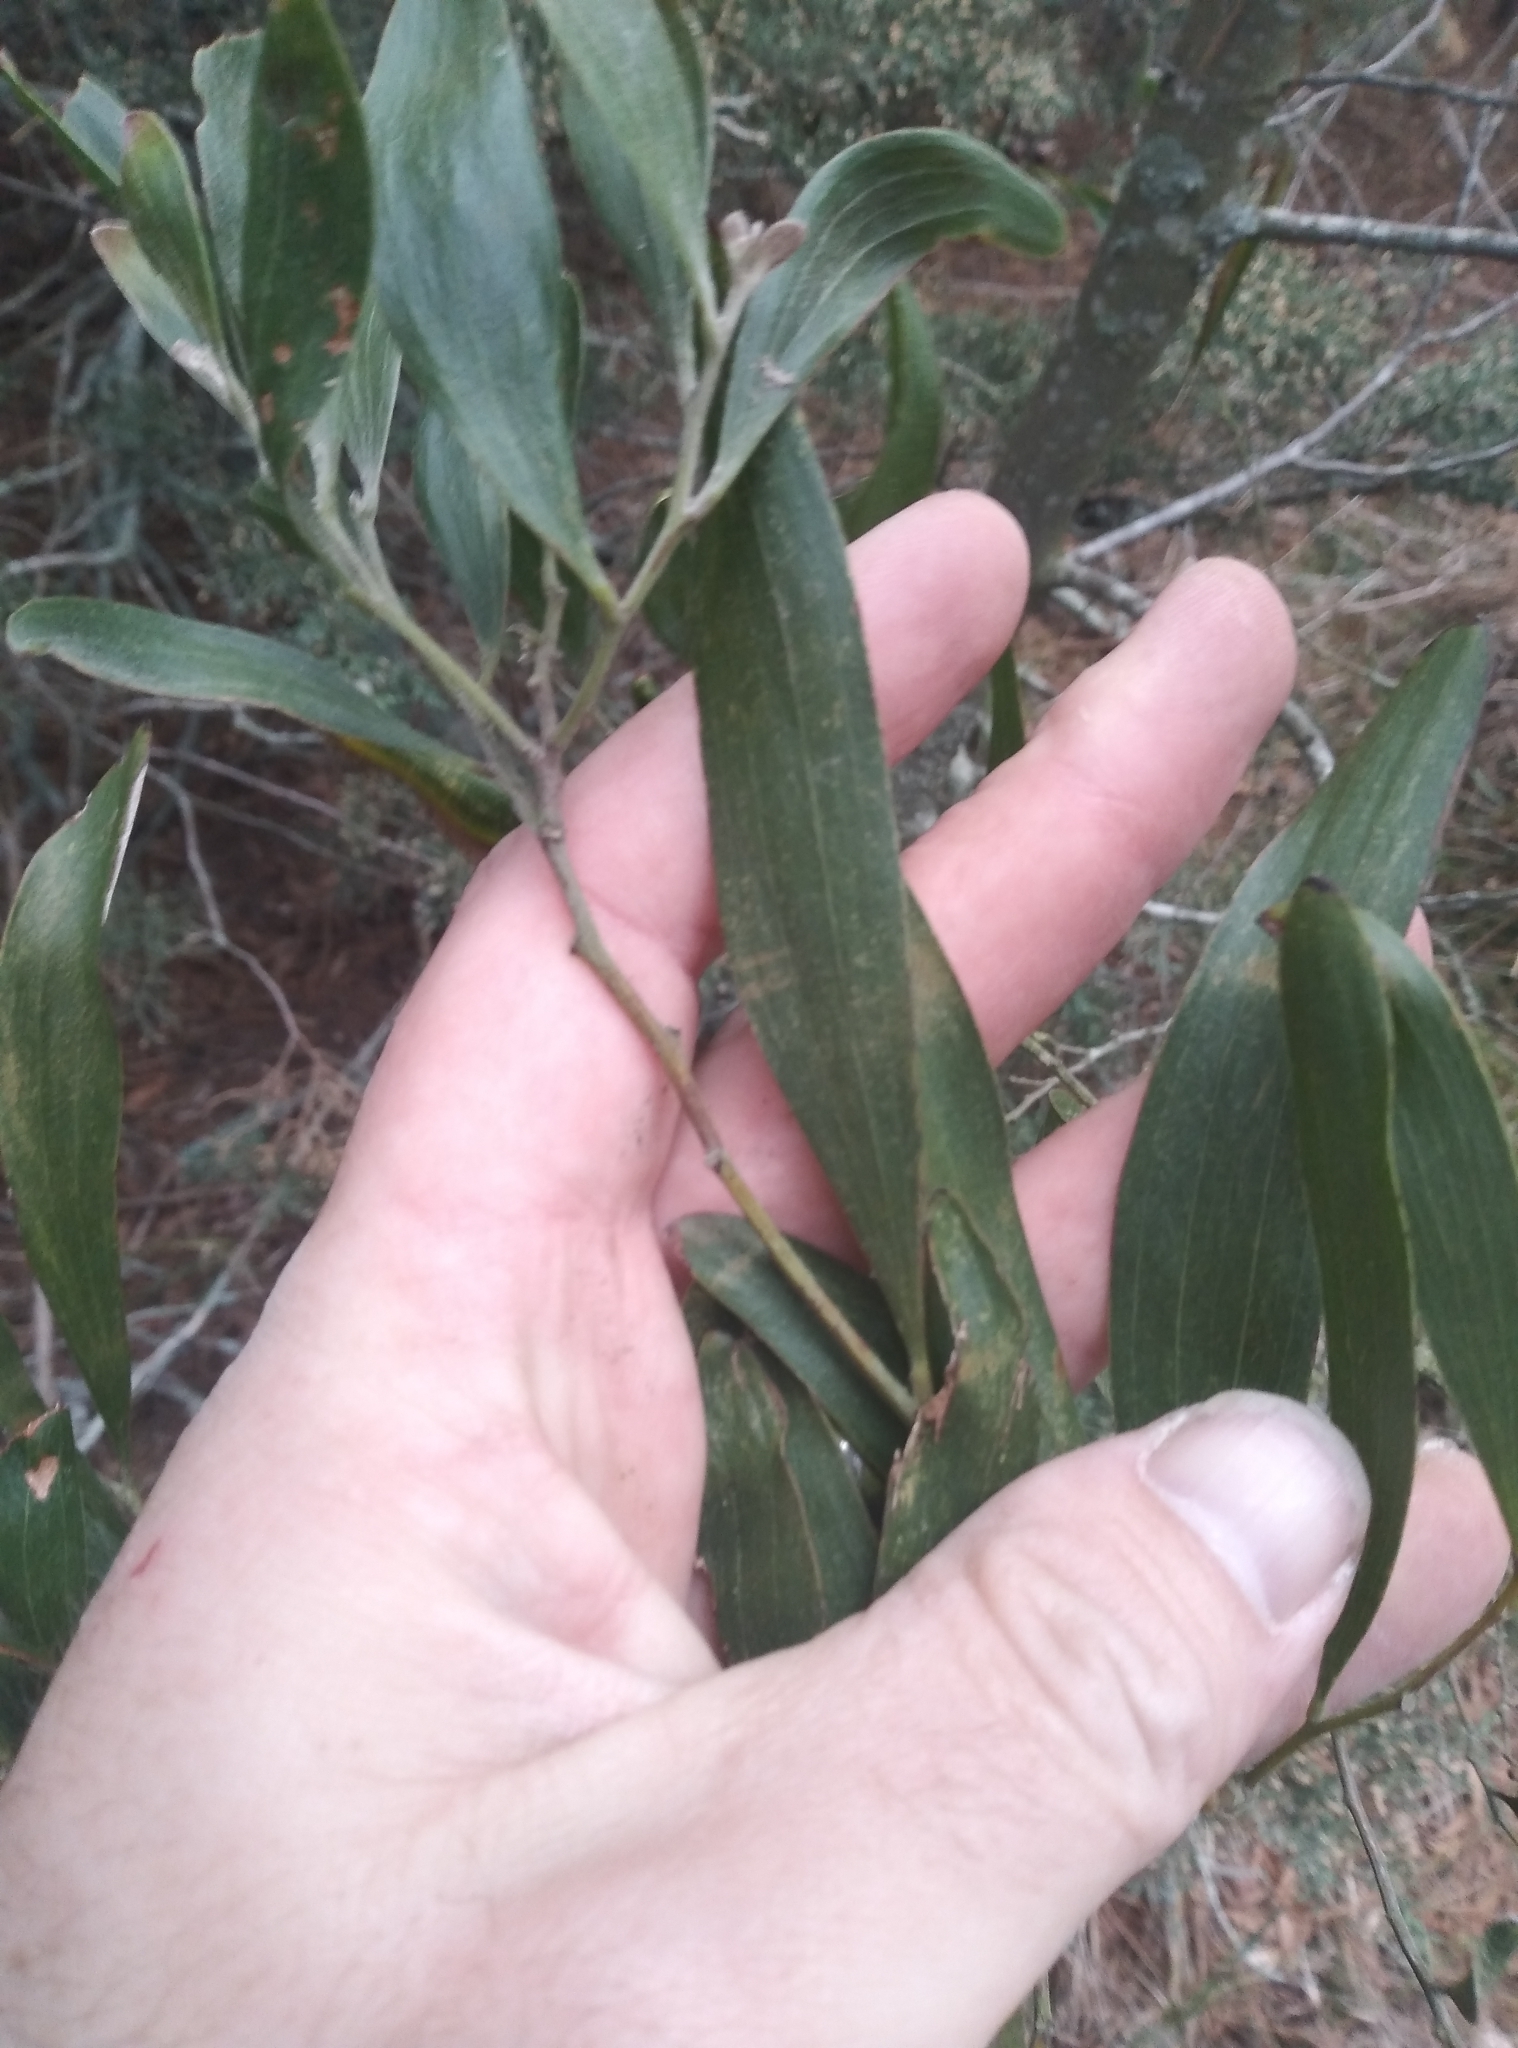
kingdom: Plantae
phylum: Tracheophyta
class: Magnoliopsida
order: Fabales
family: Fabaceae
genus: Acacia
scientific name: Acacia melanoxylon
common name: Blackwood
